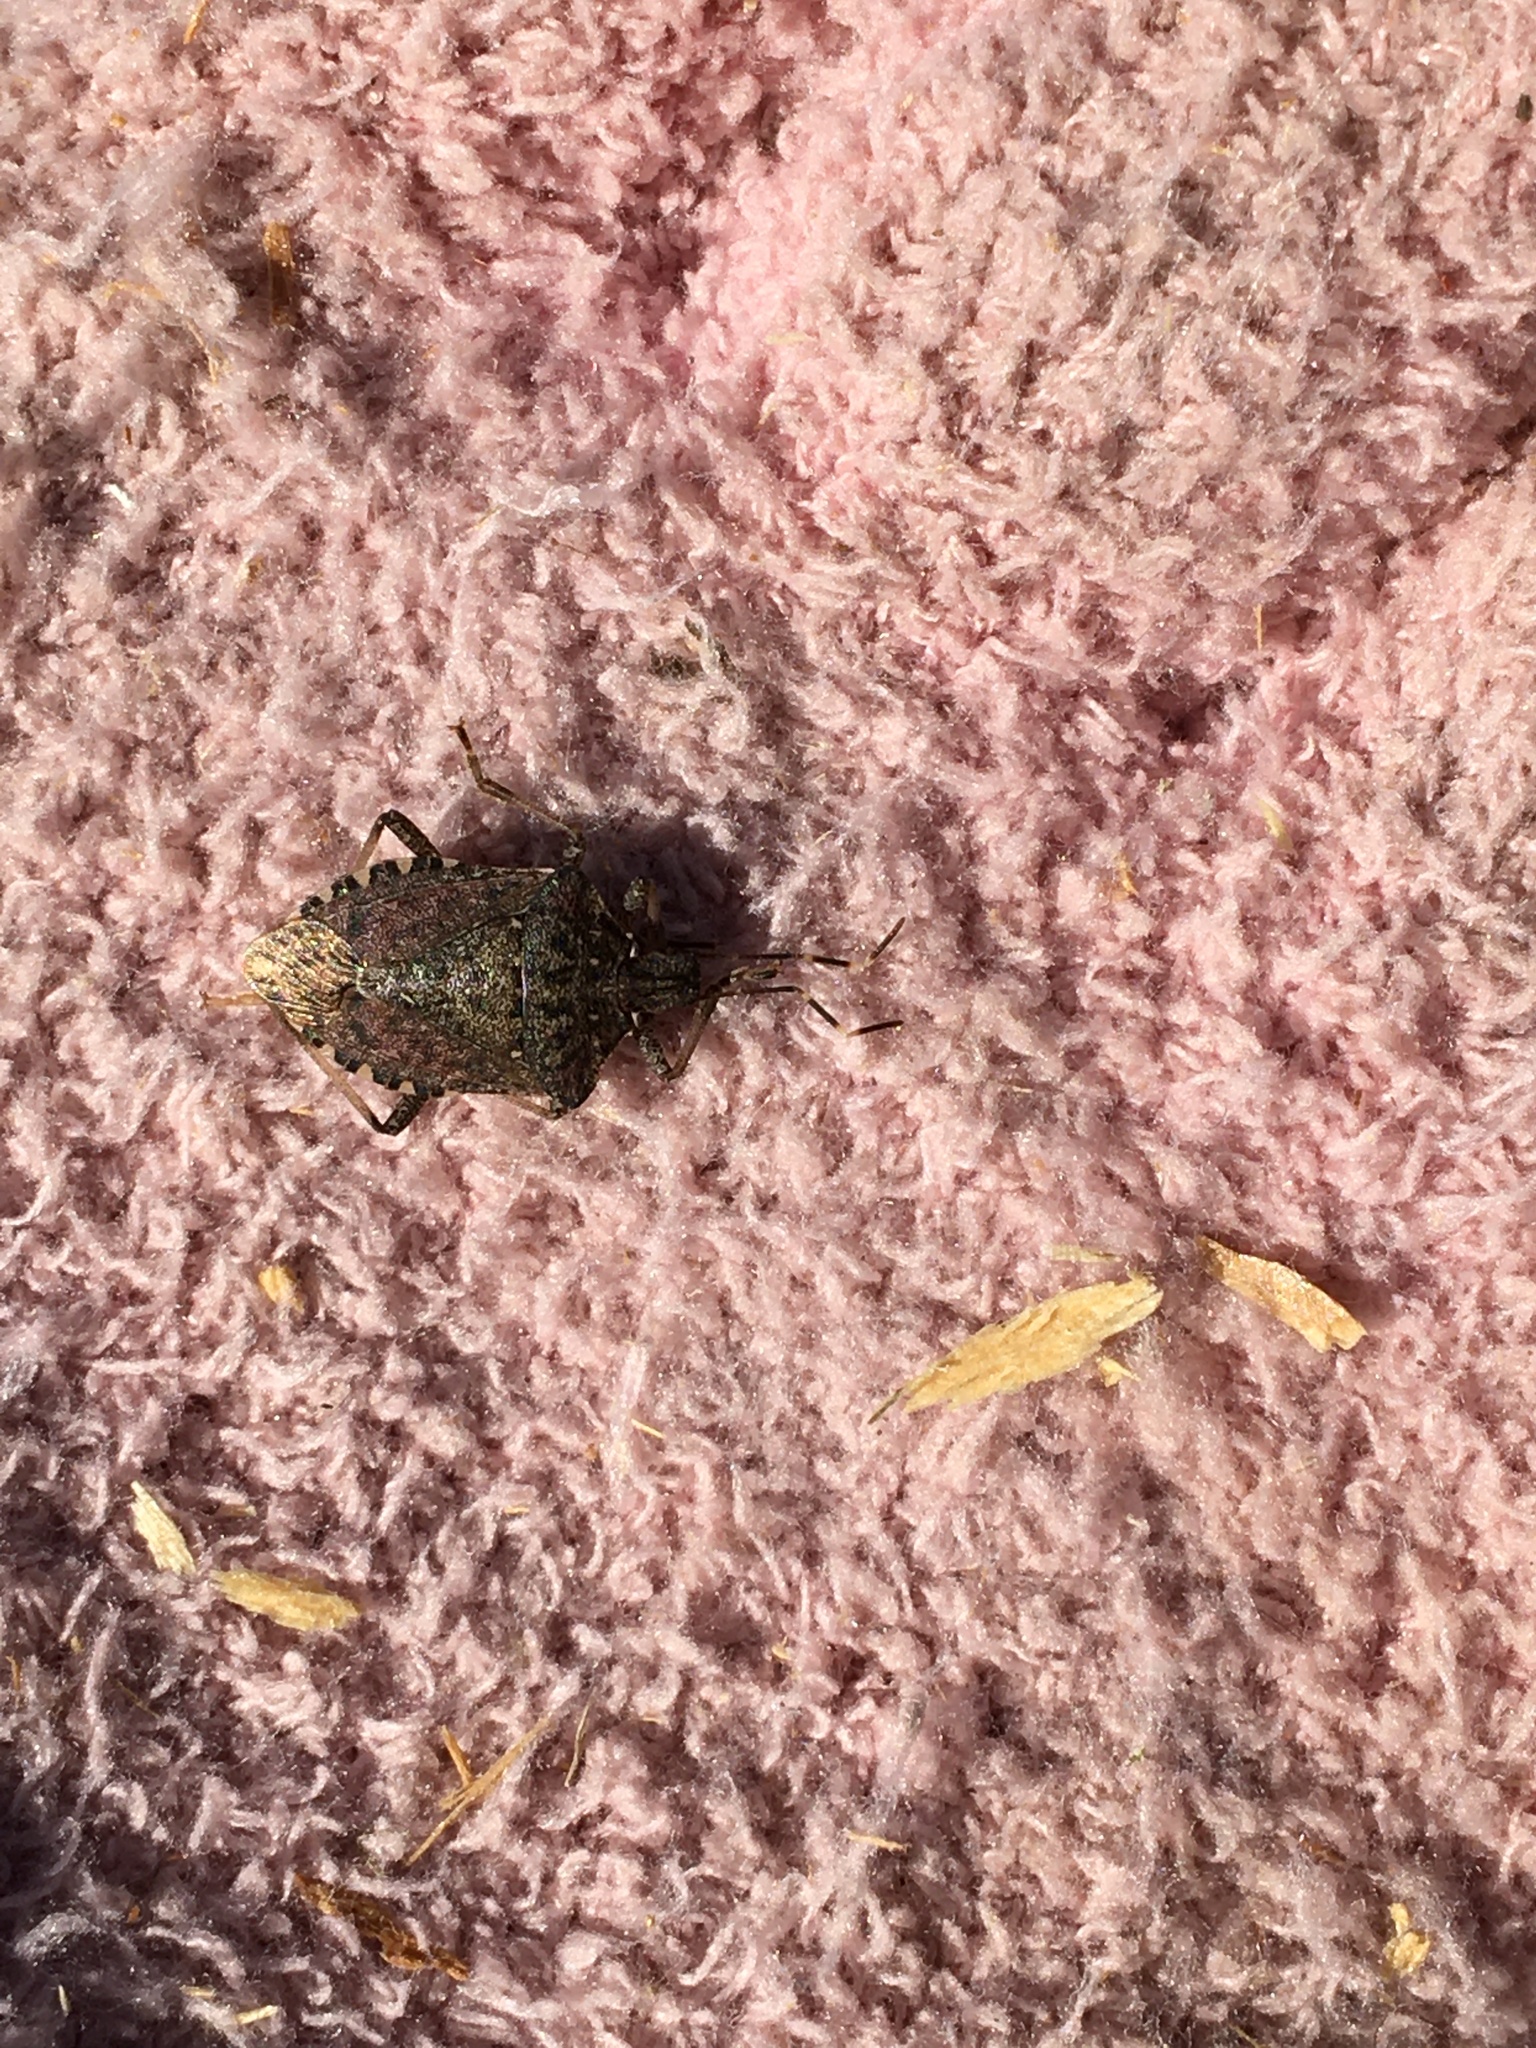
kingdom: Animalia
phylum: Arthropoda
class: Insecta
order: Hemiptera
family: Pentatomidae
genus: Halyomorpha
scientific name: Halyomorpha halys
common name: Brown marmorated stink bug
